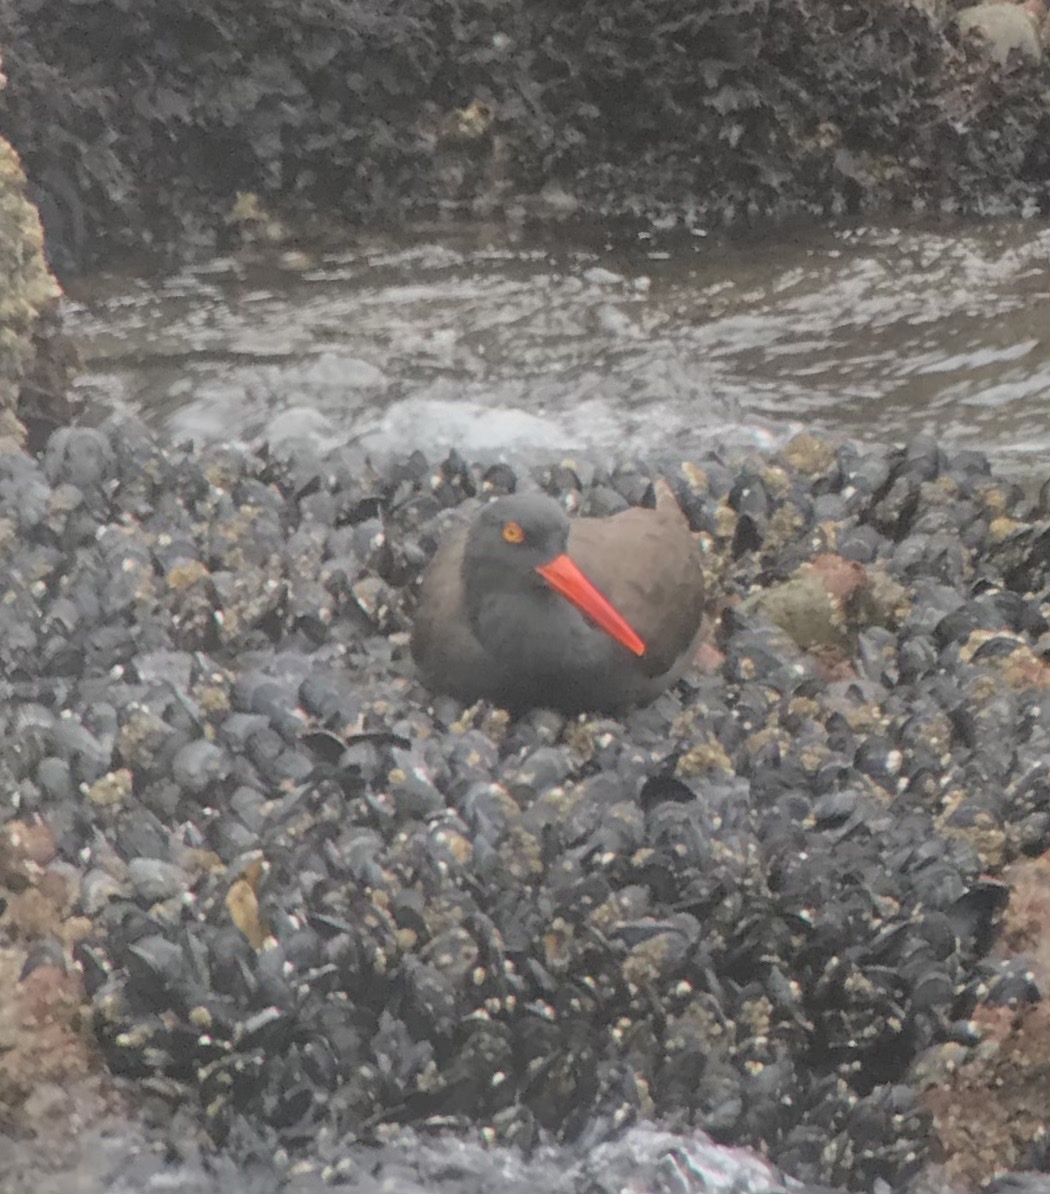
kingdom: Animalia
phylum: Chordata
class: Aves
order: Charadriiformes
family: Haematopodidae
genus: Haematopus
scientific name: Haematopus bachmani
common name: Black oystercatcher
